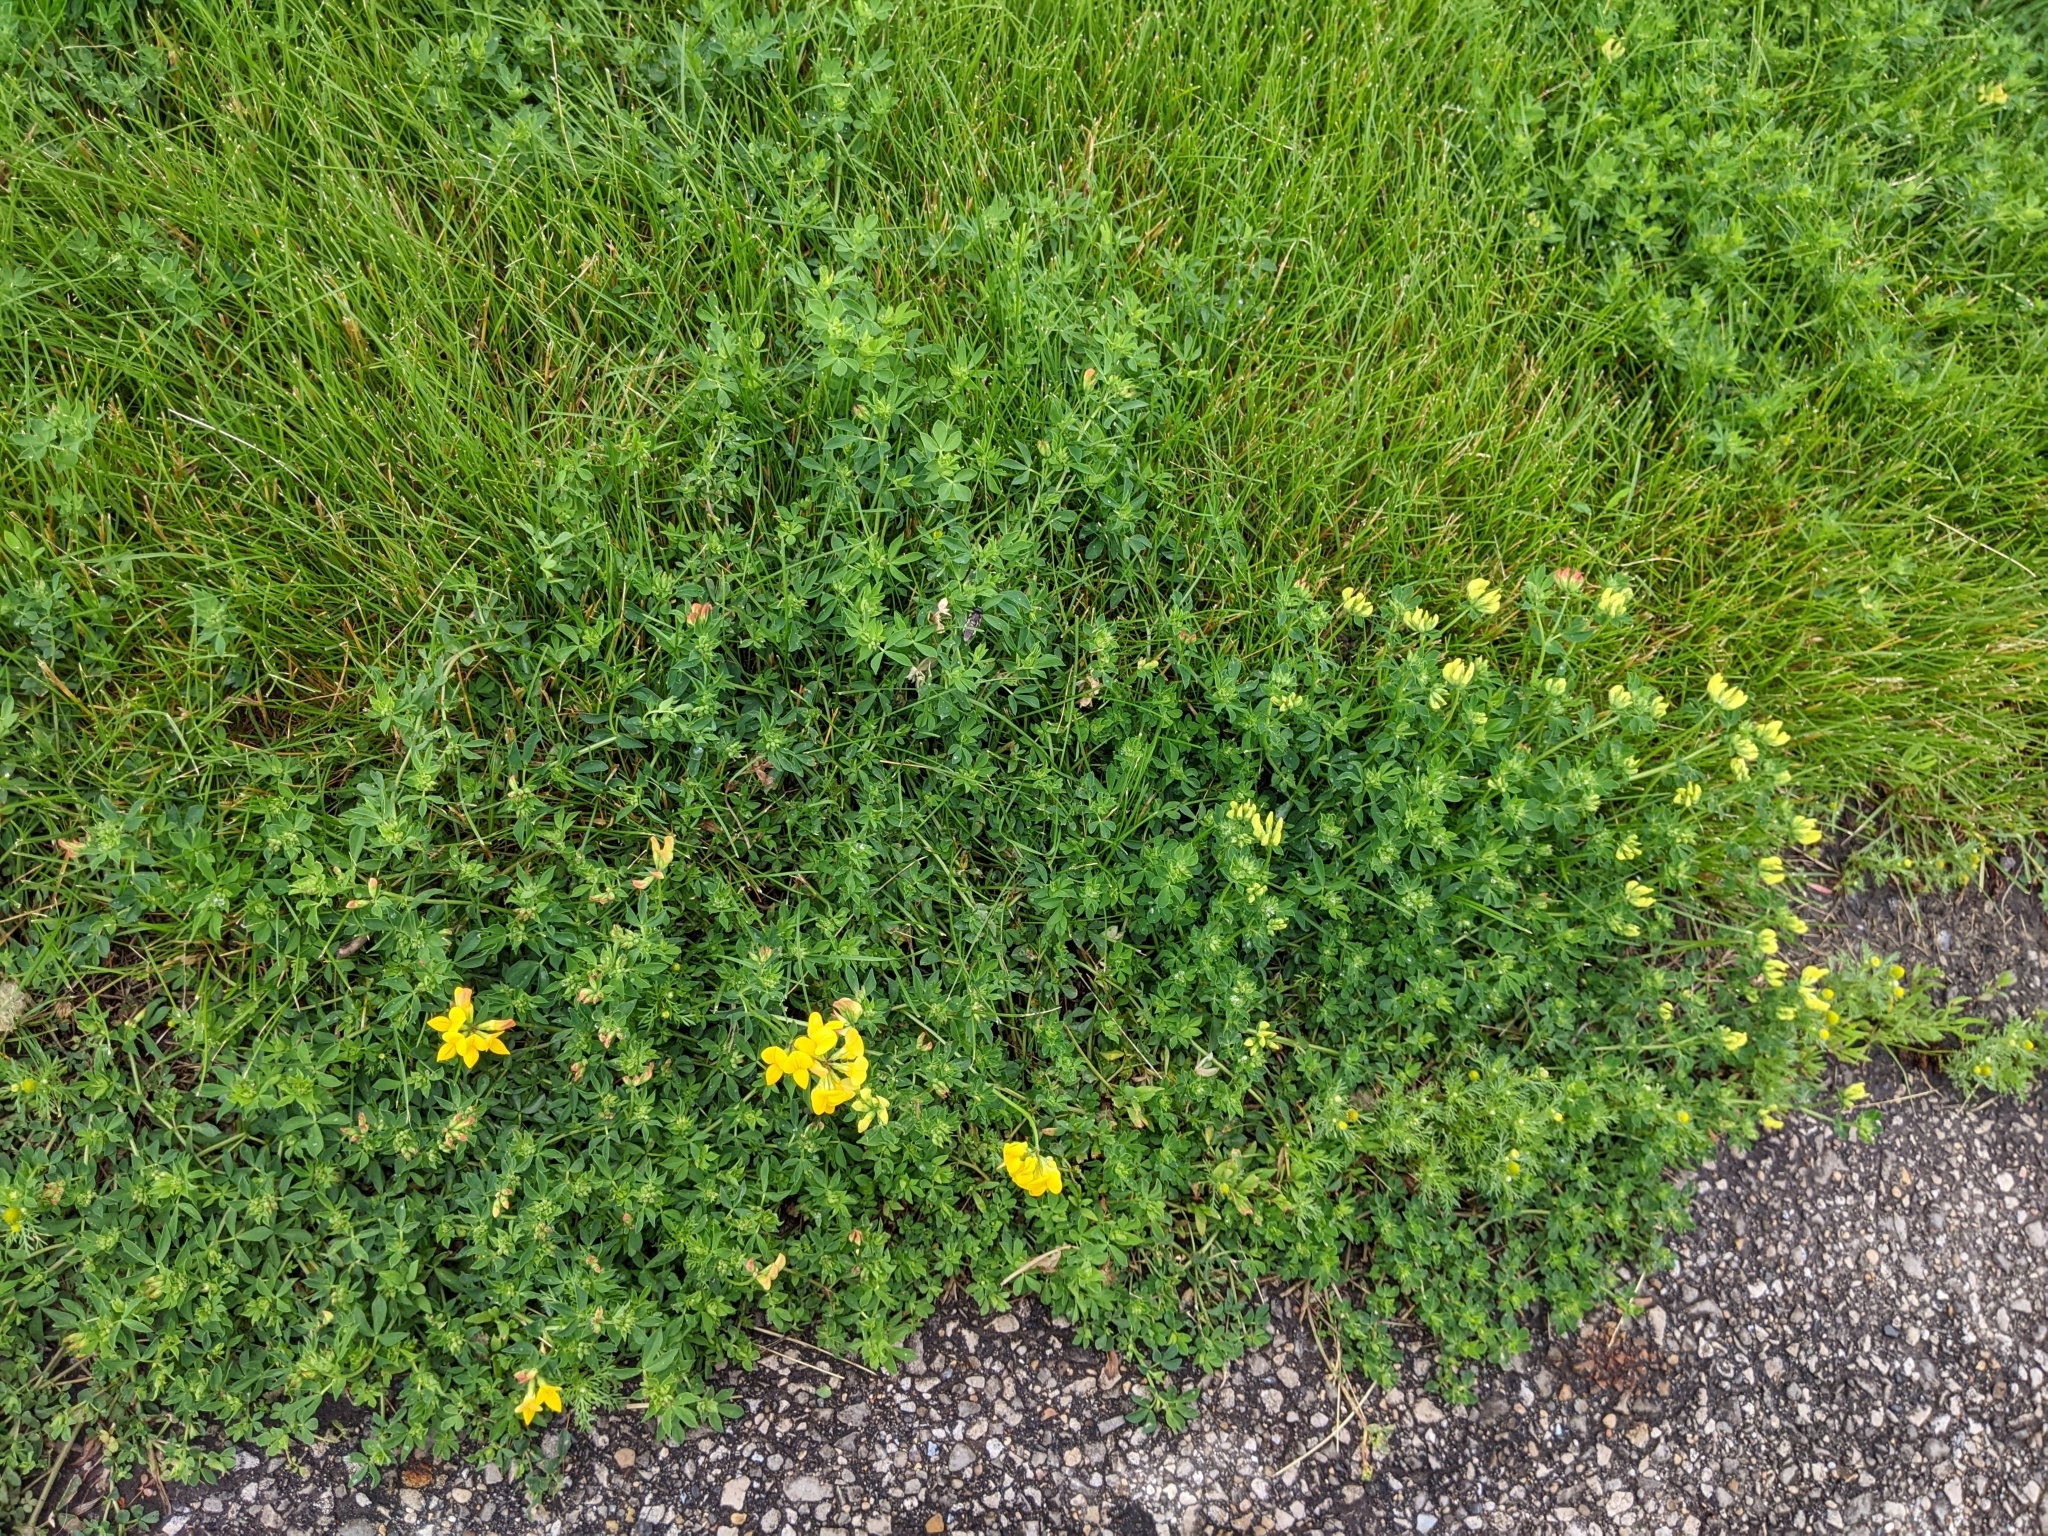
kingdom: Plantae
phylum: Tracheophyta
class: Magnoliopsida
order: Fabales
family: Fabaceae
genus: Lotus
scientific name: Lotus corniculatus
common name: Common bird's-foot-trefoil
